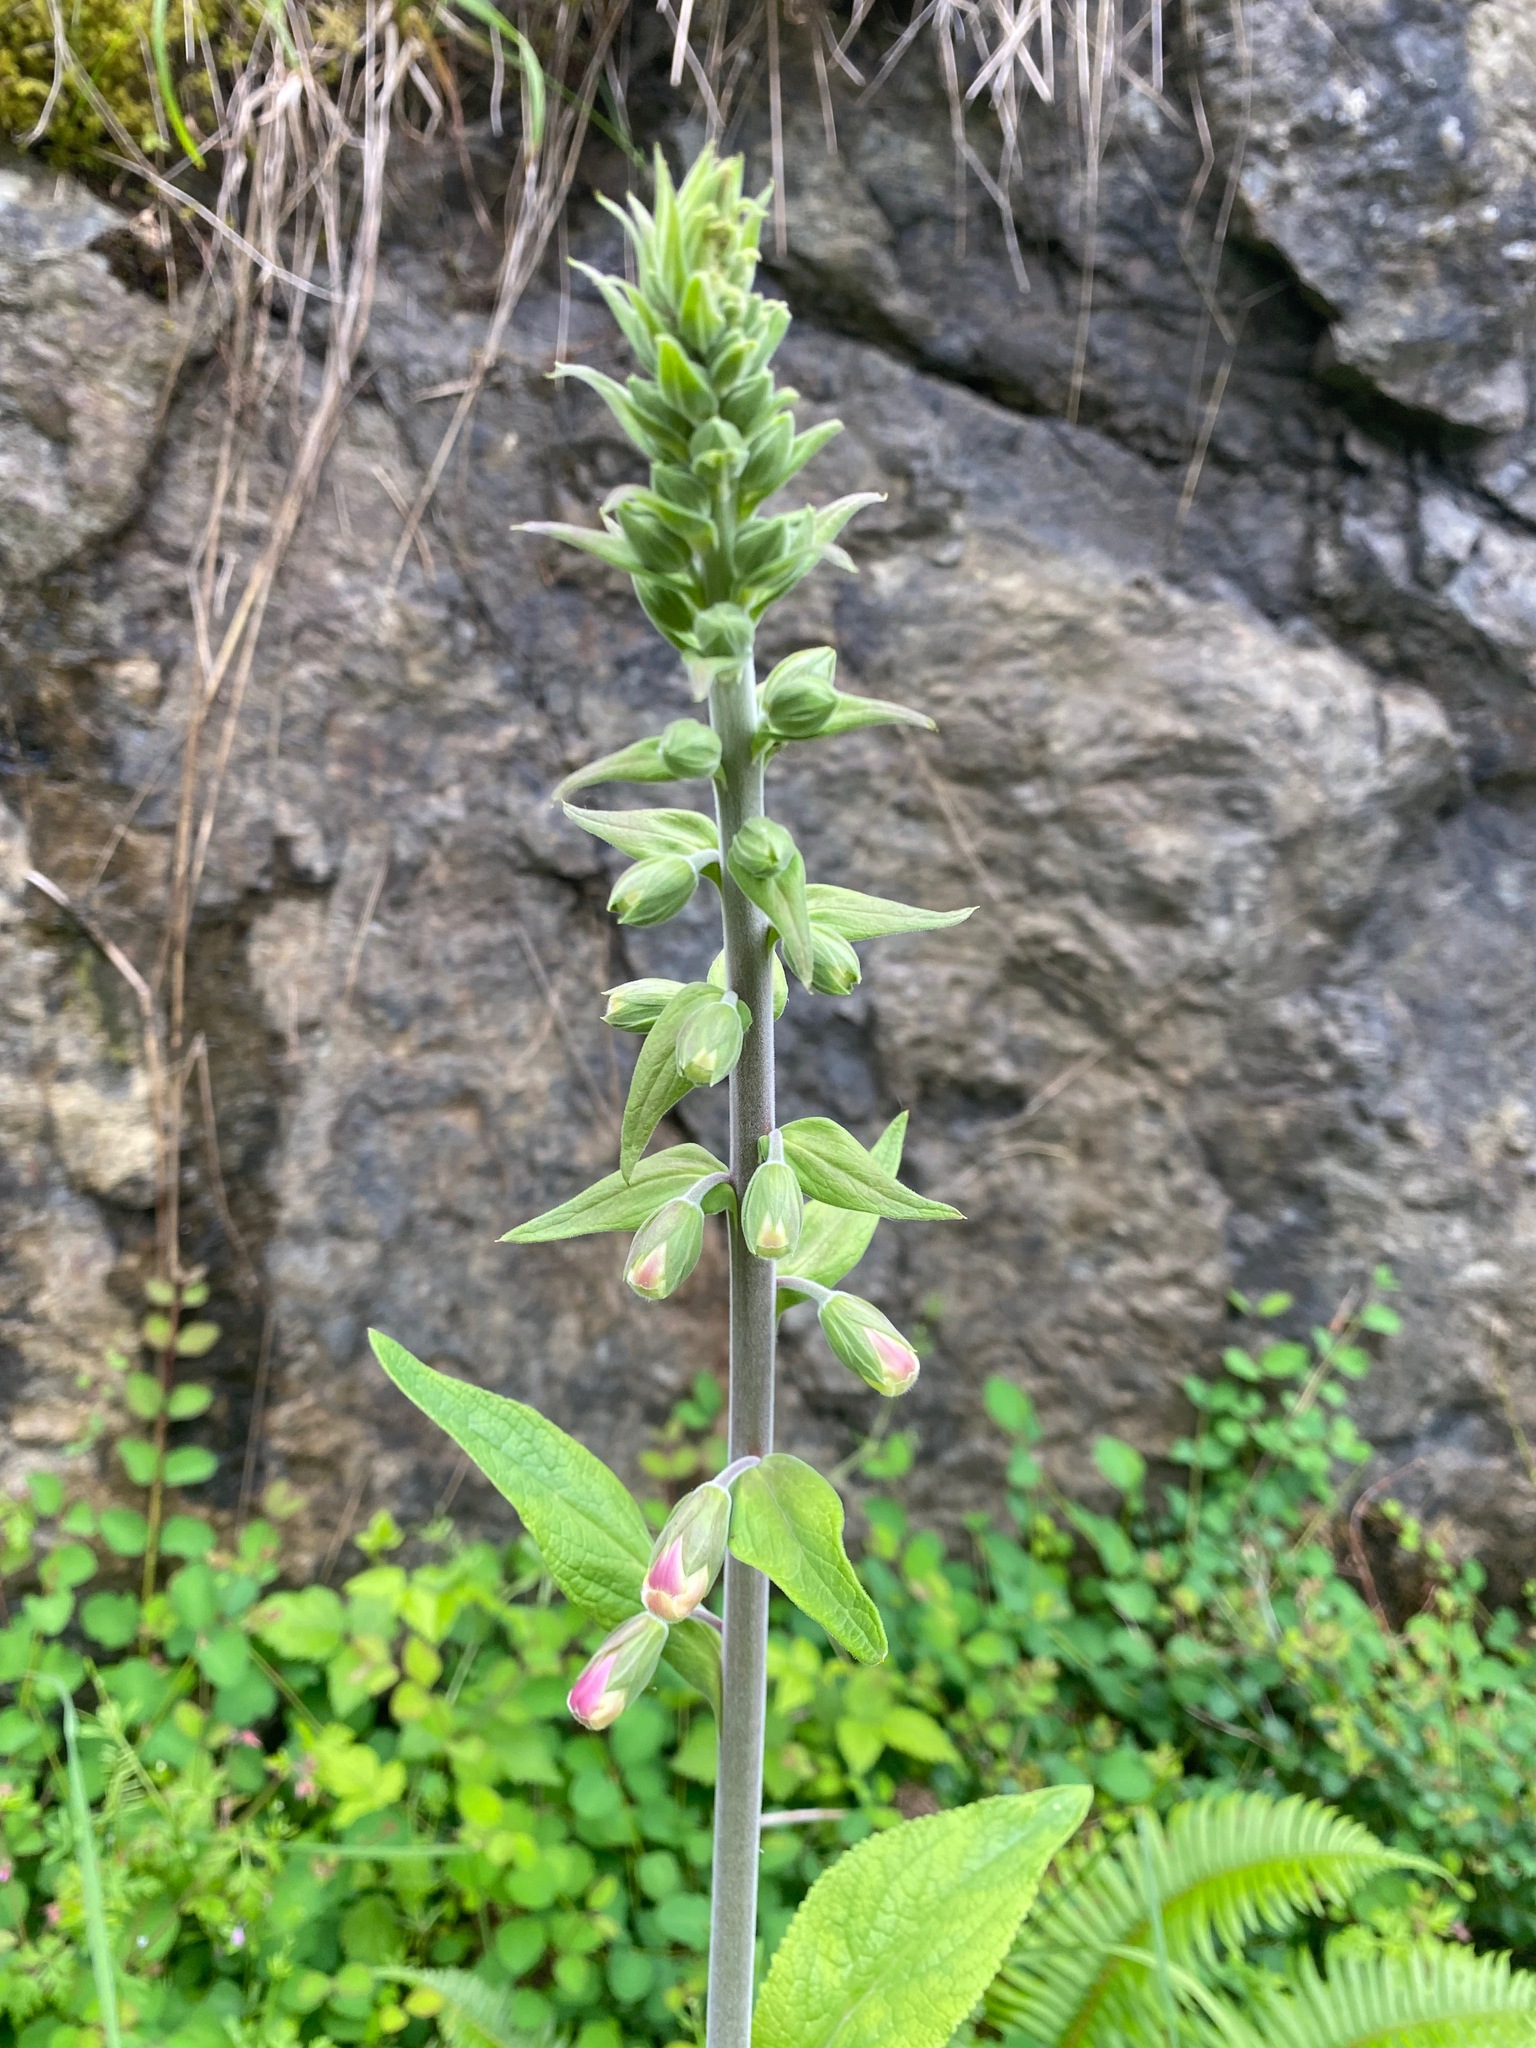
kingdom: Plantae
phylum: Tracheophyta
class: Magnoliopsida
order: Lamiales
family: Plantaginaceae
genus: Digitalis
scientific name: Digitalis purpurea
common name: Foxglove
